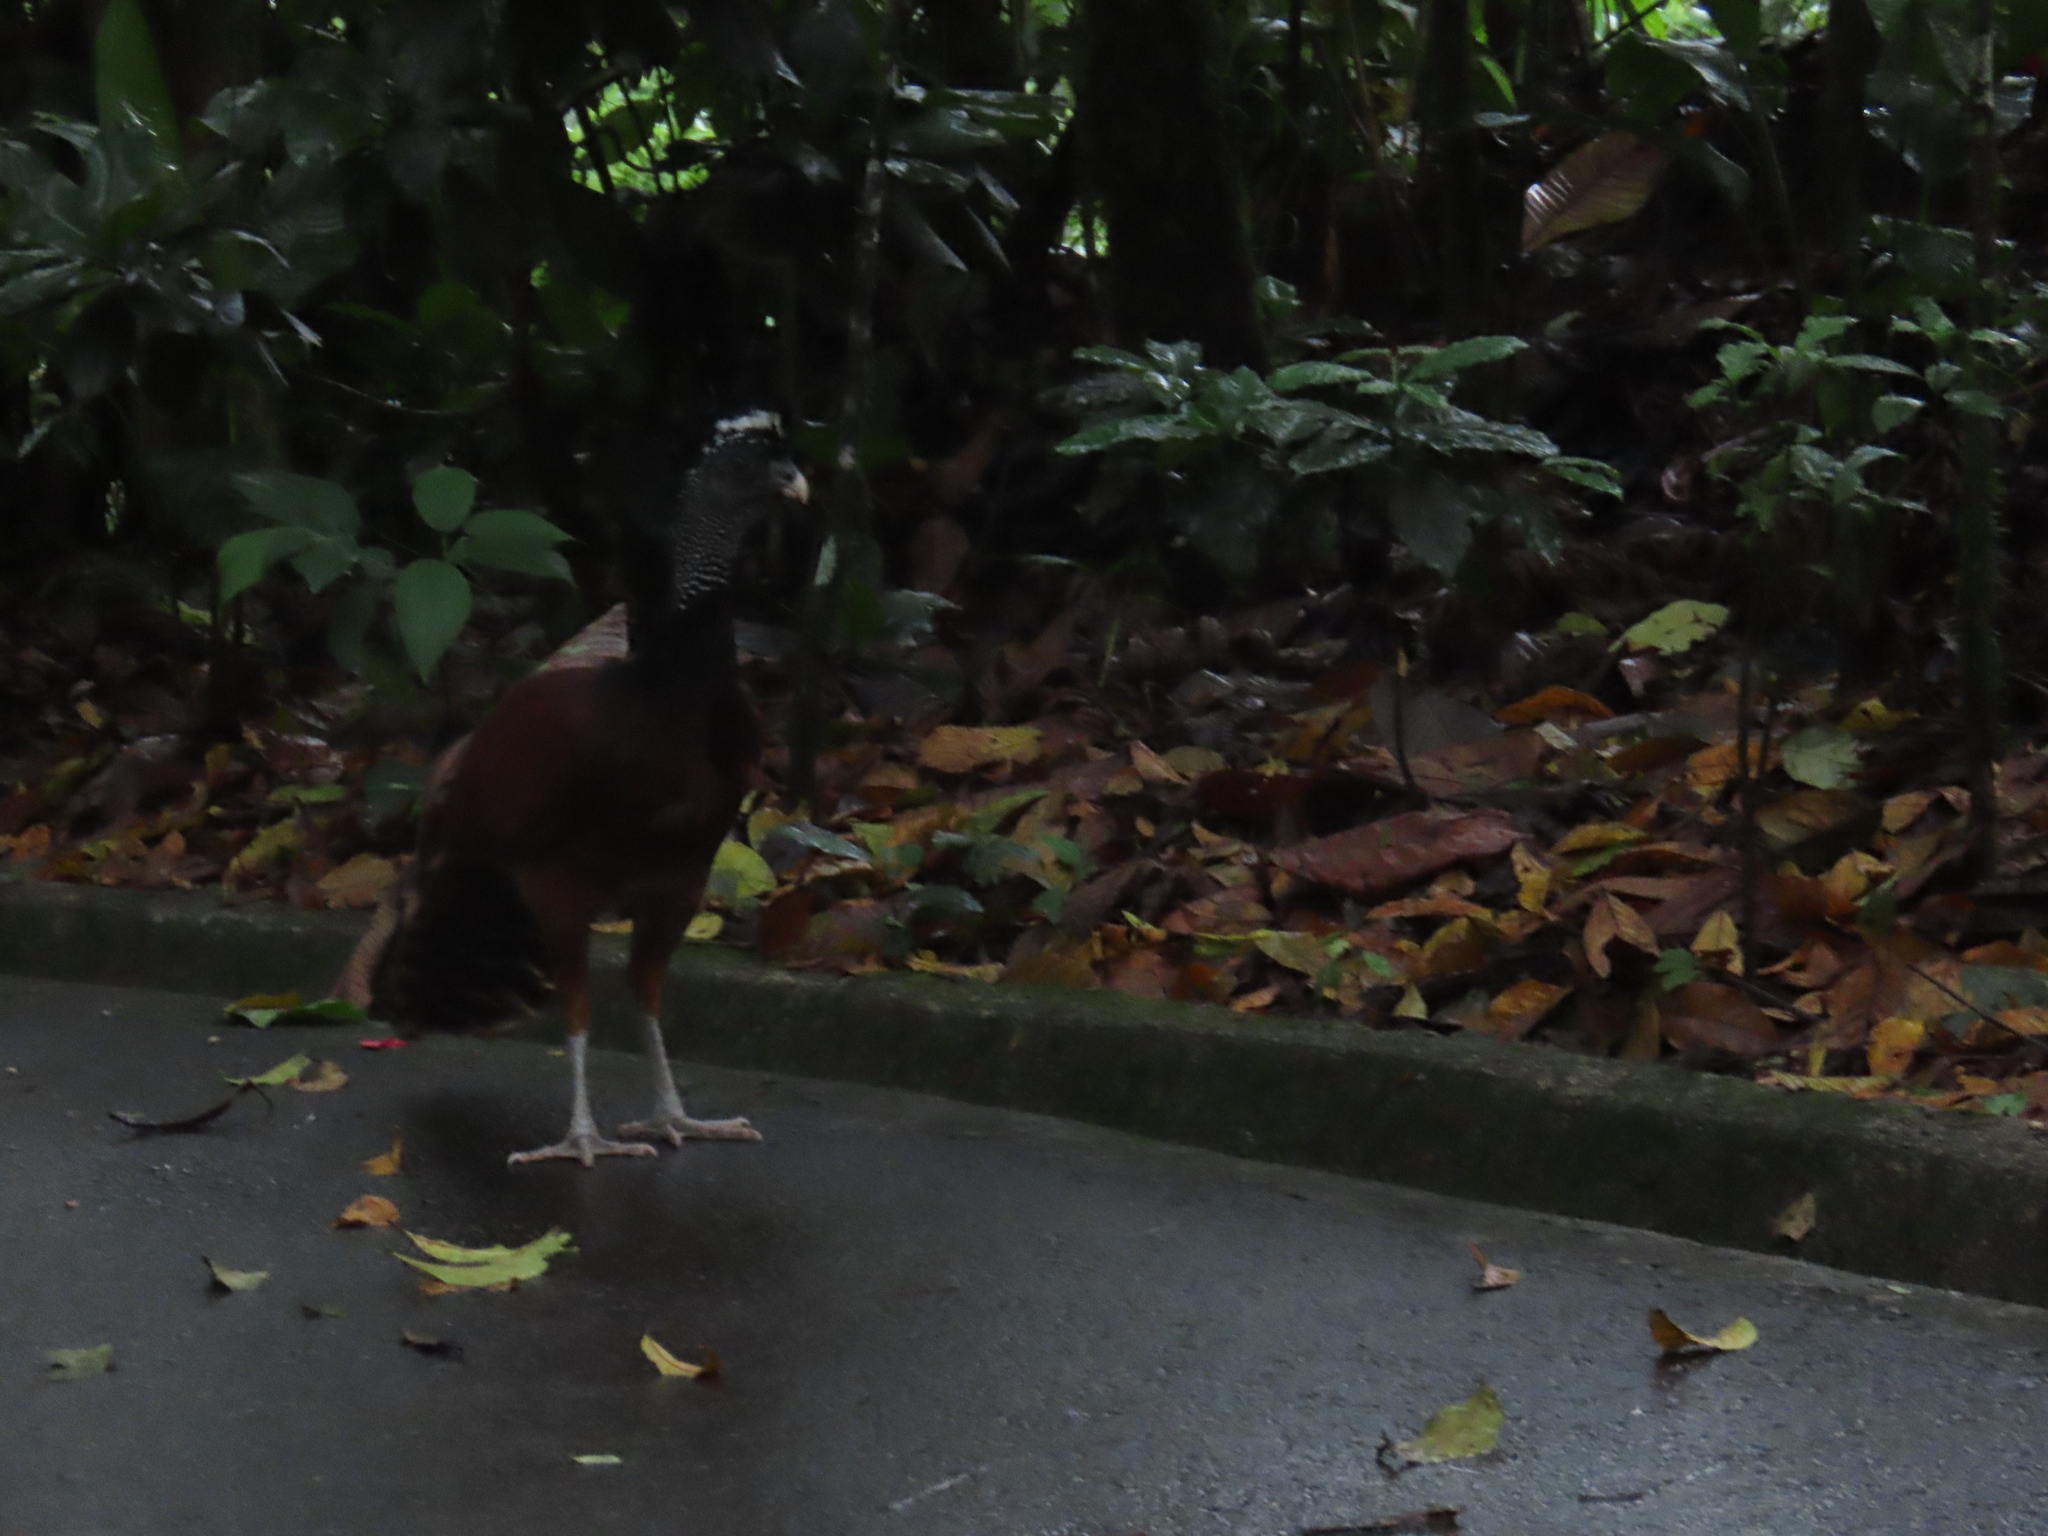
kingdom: Animalia
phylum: Chordata
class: Aves
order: Galliformes
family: Cracidae
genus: Crax
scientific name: Crax rubra
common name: Great curassow
